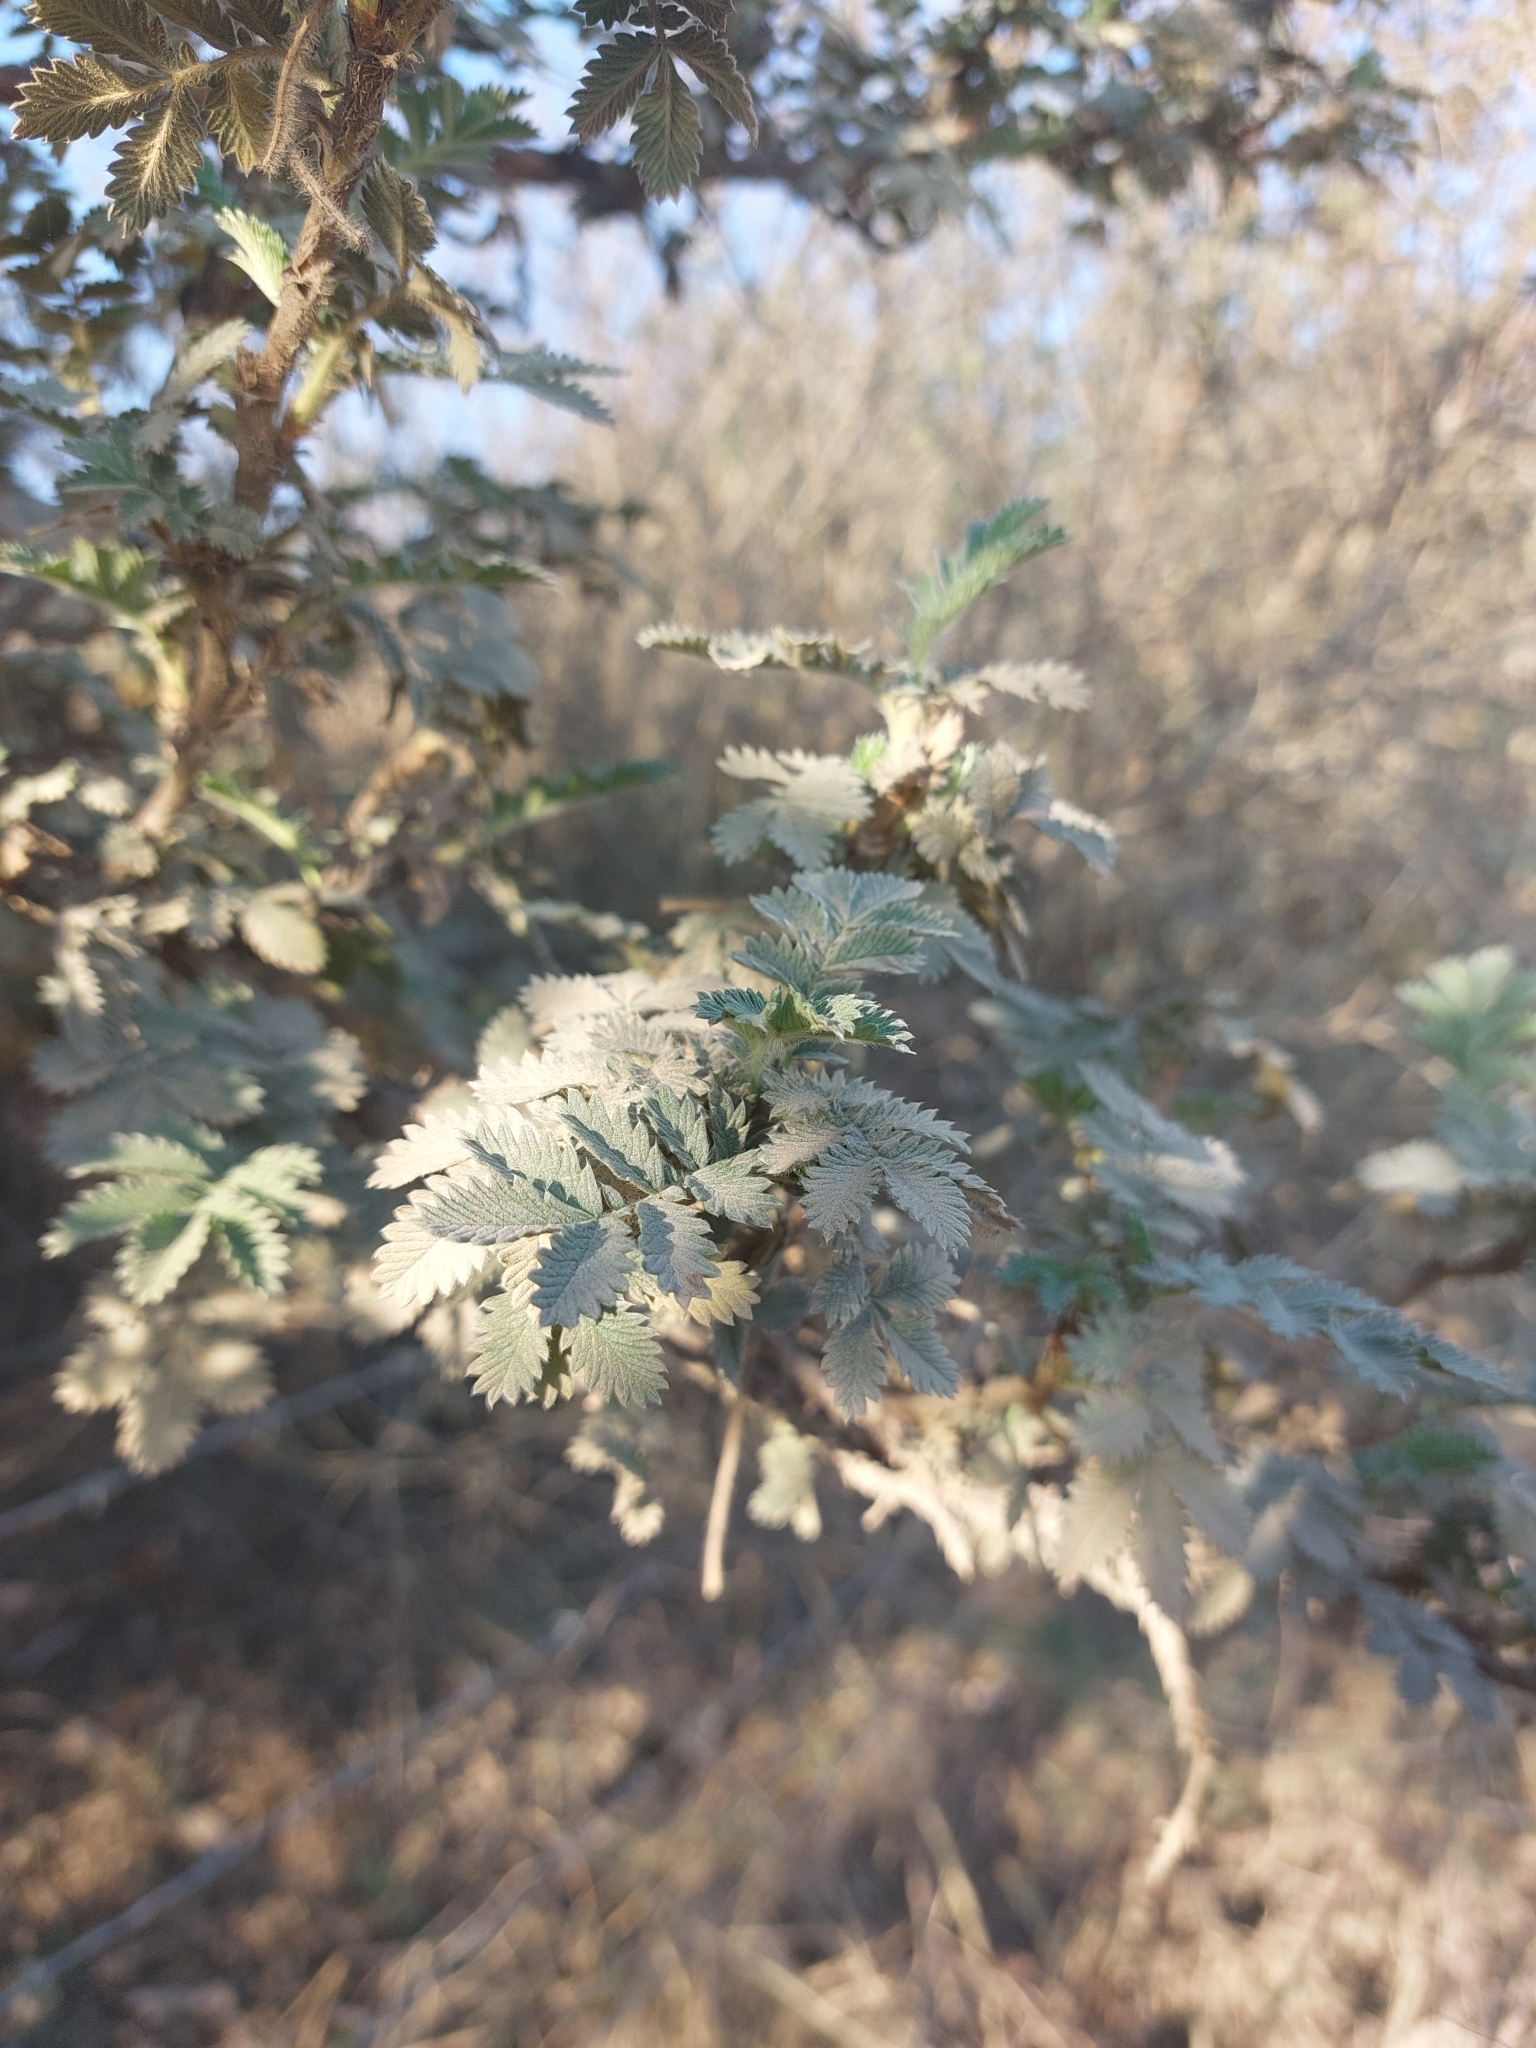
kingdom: Plantae
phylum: Tracheophyta
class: Magnoliopsida
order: Rosales
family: Rosaceae
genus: Leucosidea
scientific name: Leucosidea sericea
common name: Oldwood
